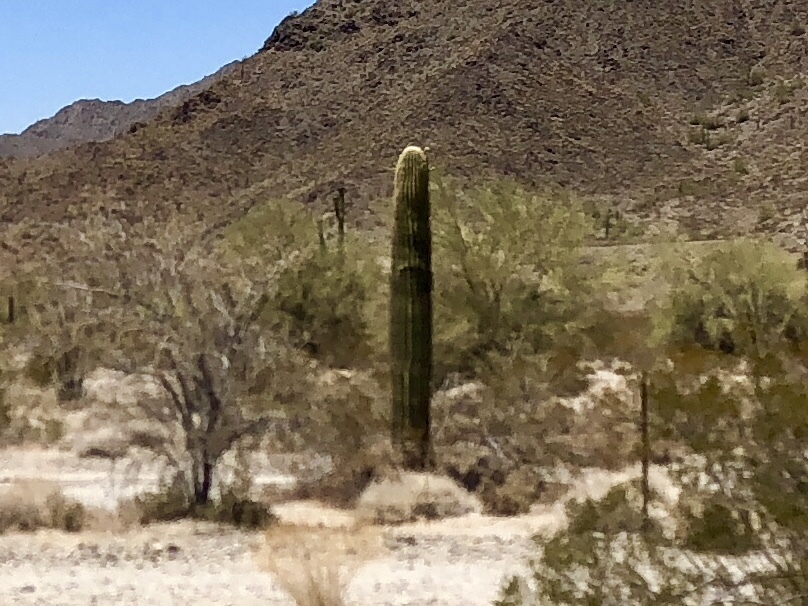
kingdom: Plantae
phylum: Tracheophyta
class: Magnoliopsida
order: Caryophyllales
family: Cactaceae
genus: Carnegiea
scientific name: Carnegiea gigantea
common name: Saguaro
